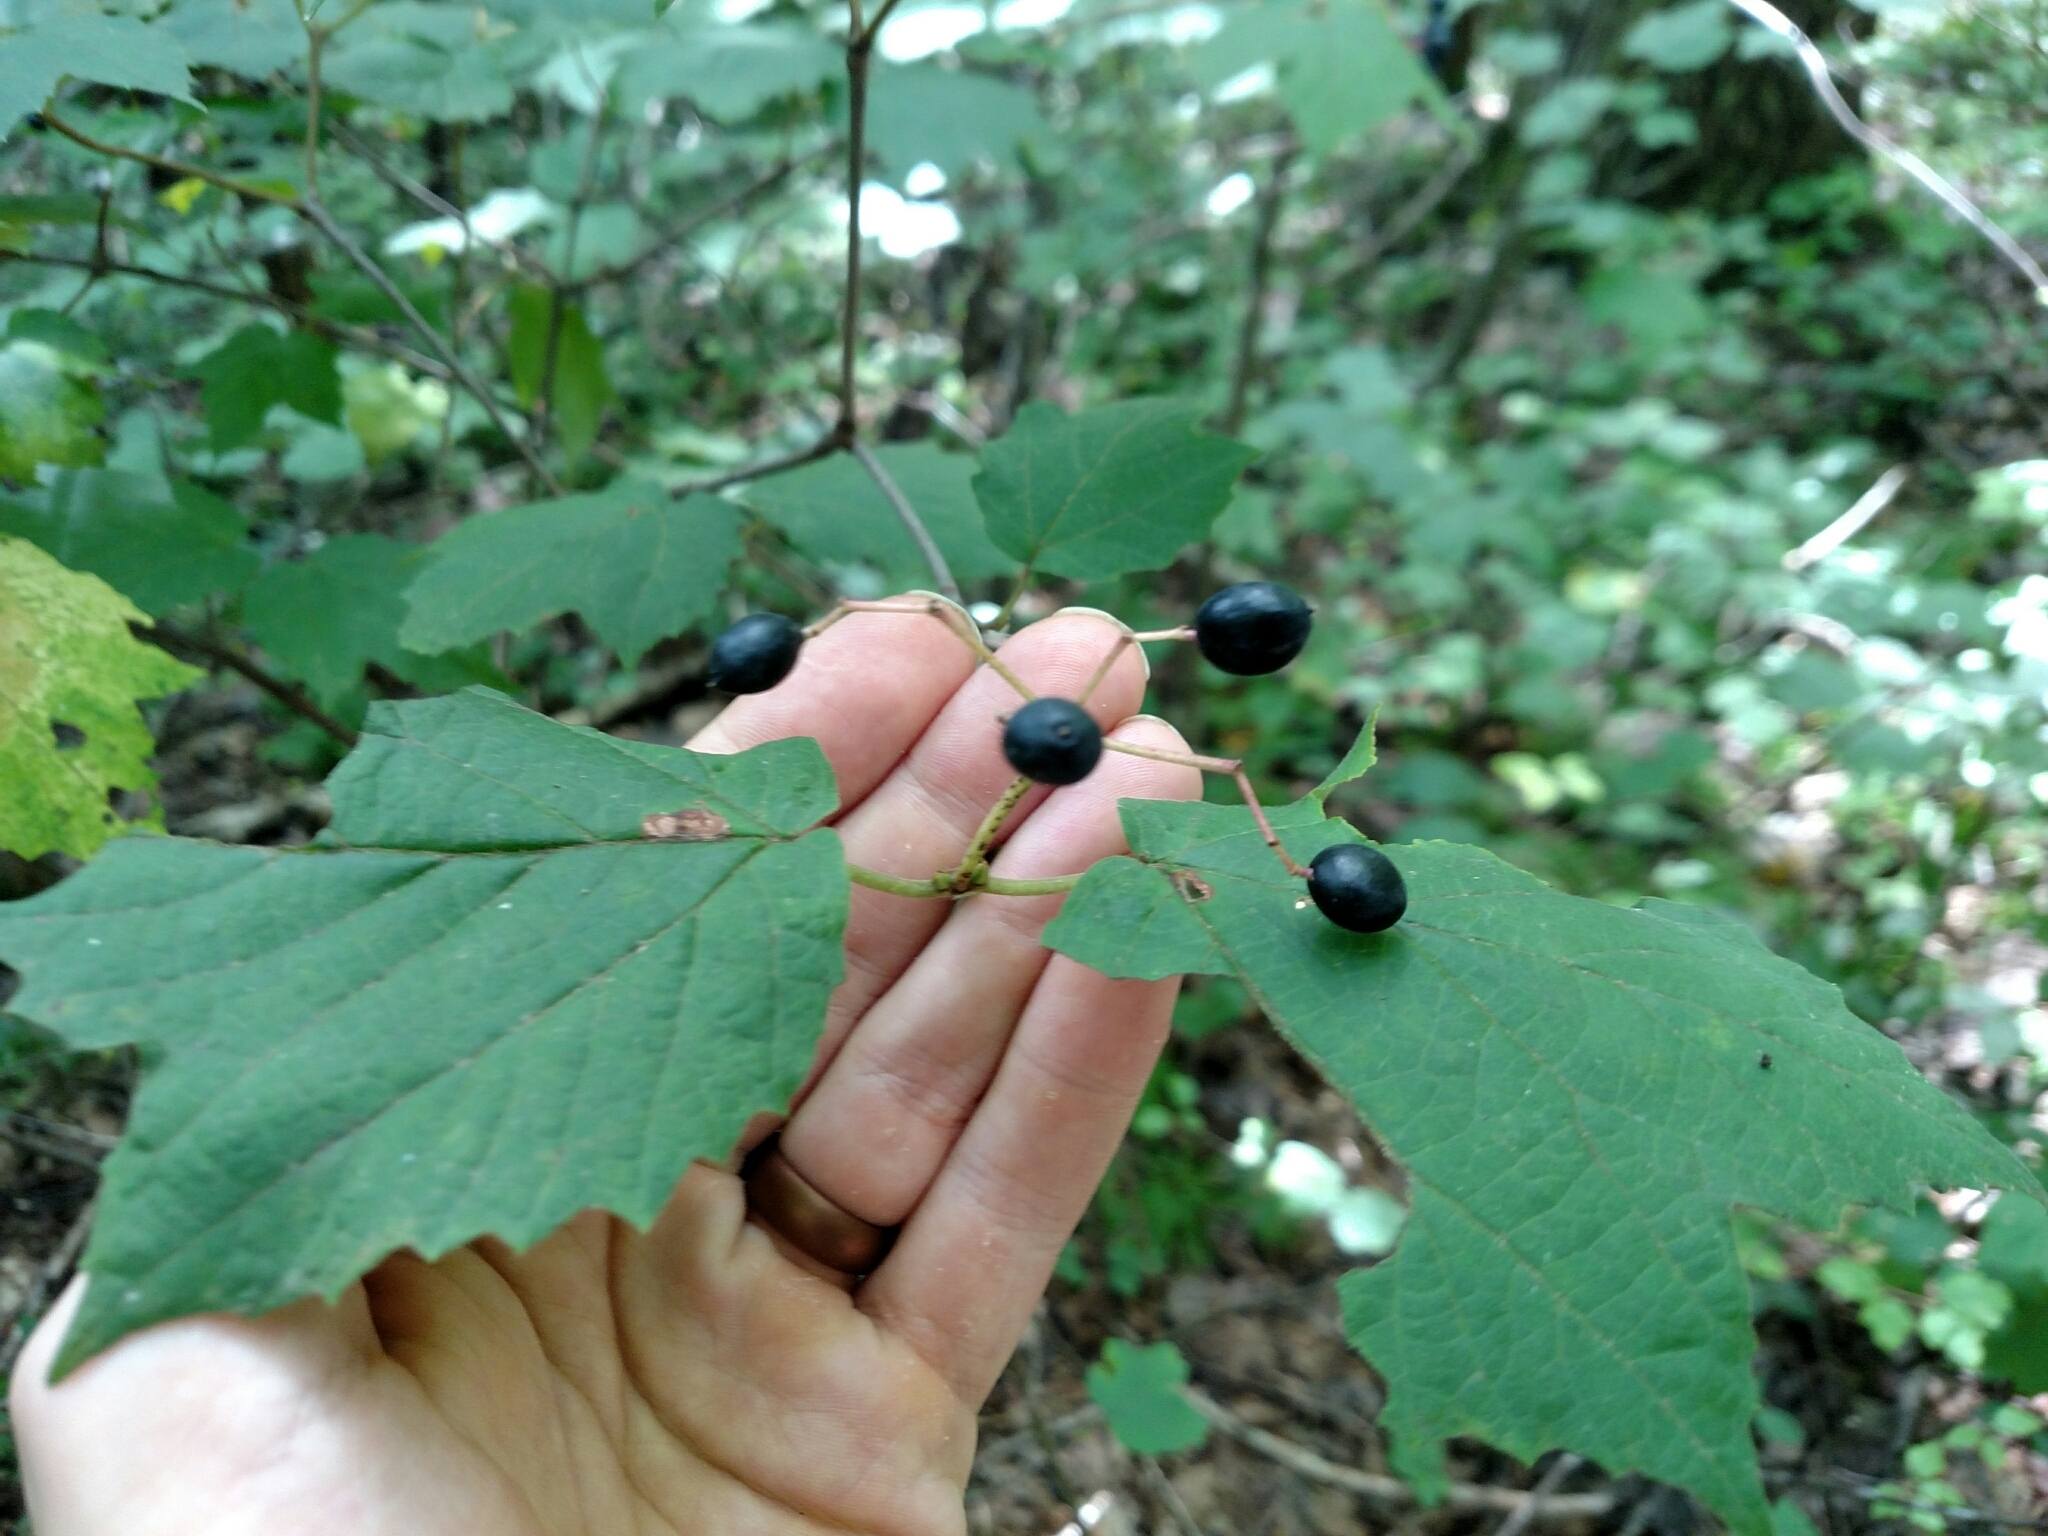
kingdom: Plantae
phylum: Tracheophyta
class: Magnoliopsida
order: Dipsacales
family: Viburnaceae
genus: Viburnum
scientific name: Viburnum acerifolium
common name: Dockmackie
